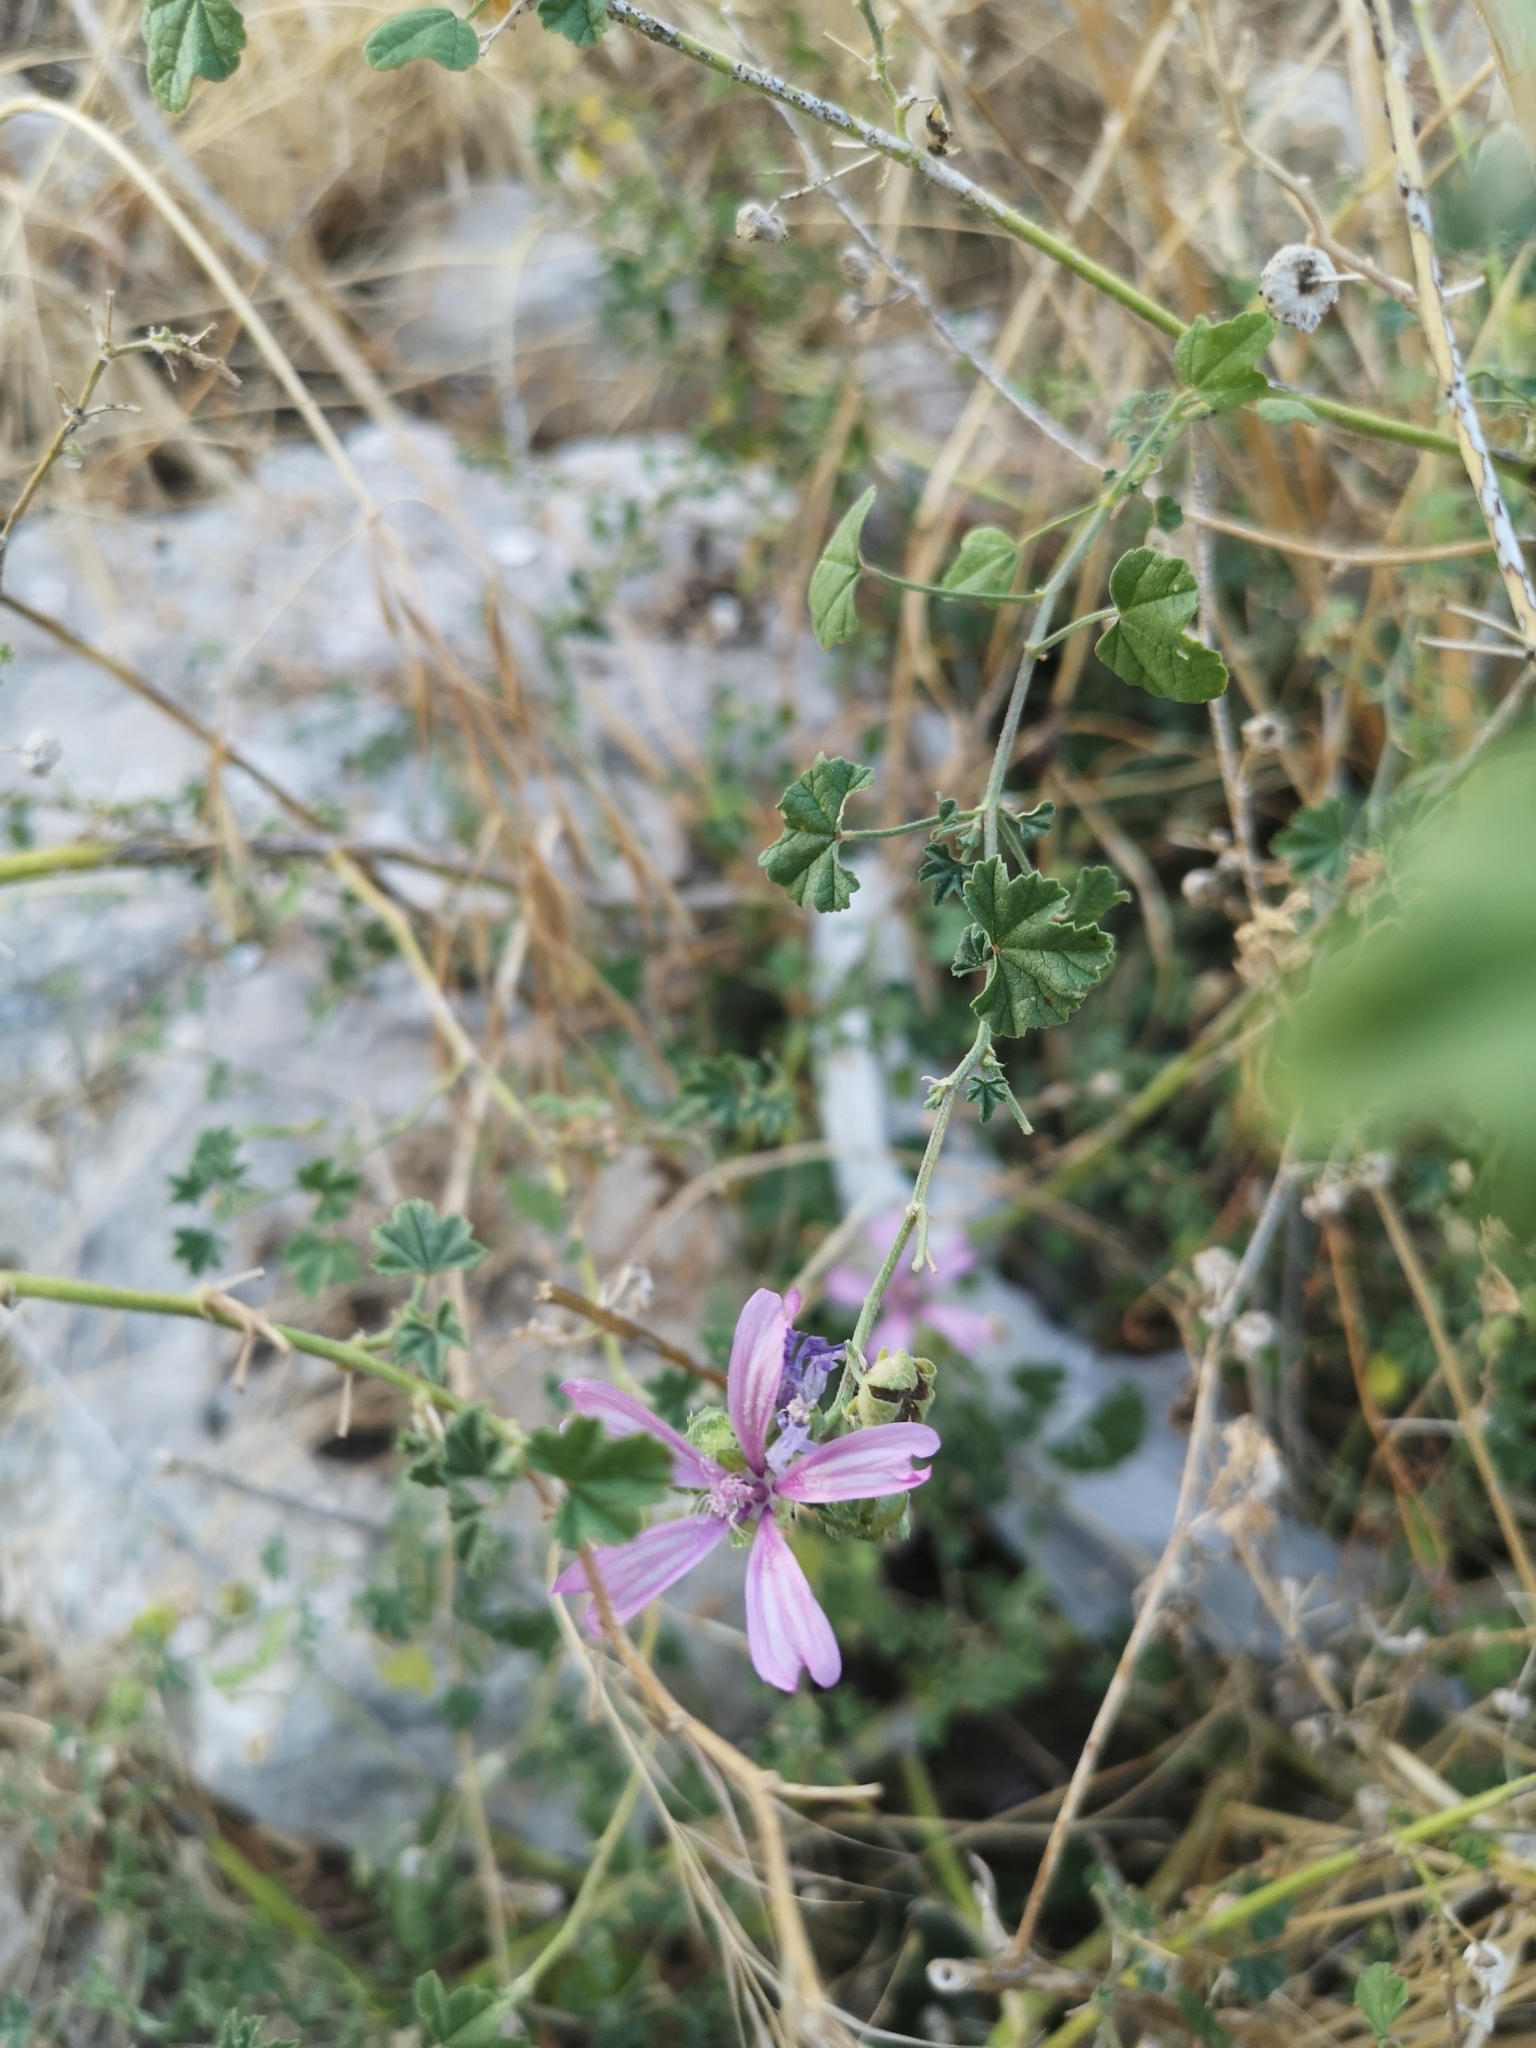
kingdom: Plantae
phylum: Tracheophyta
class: Magnoliopsida
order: Malvales
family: Malvaceae
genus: Malva
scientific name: Malva sylvestris
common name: Common mallow
